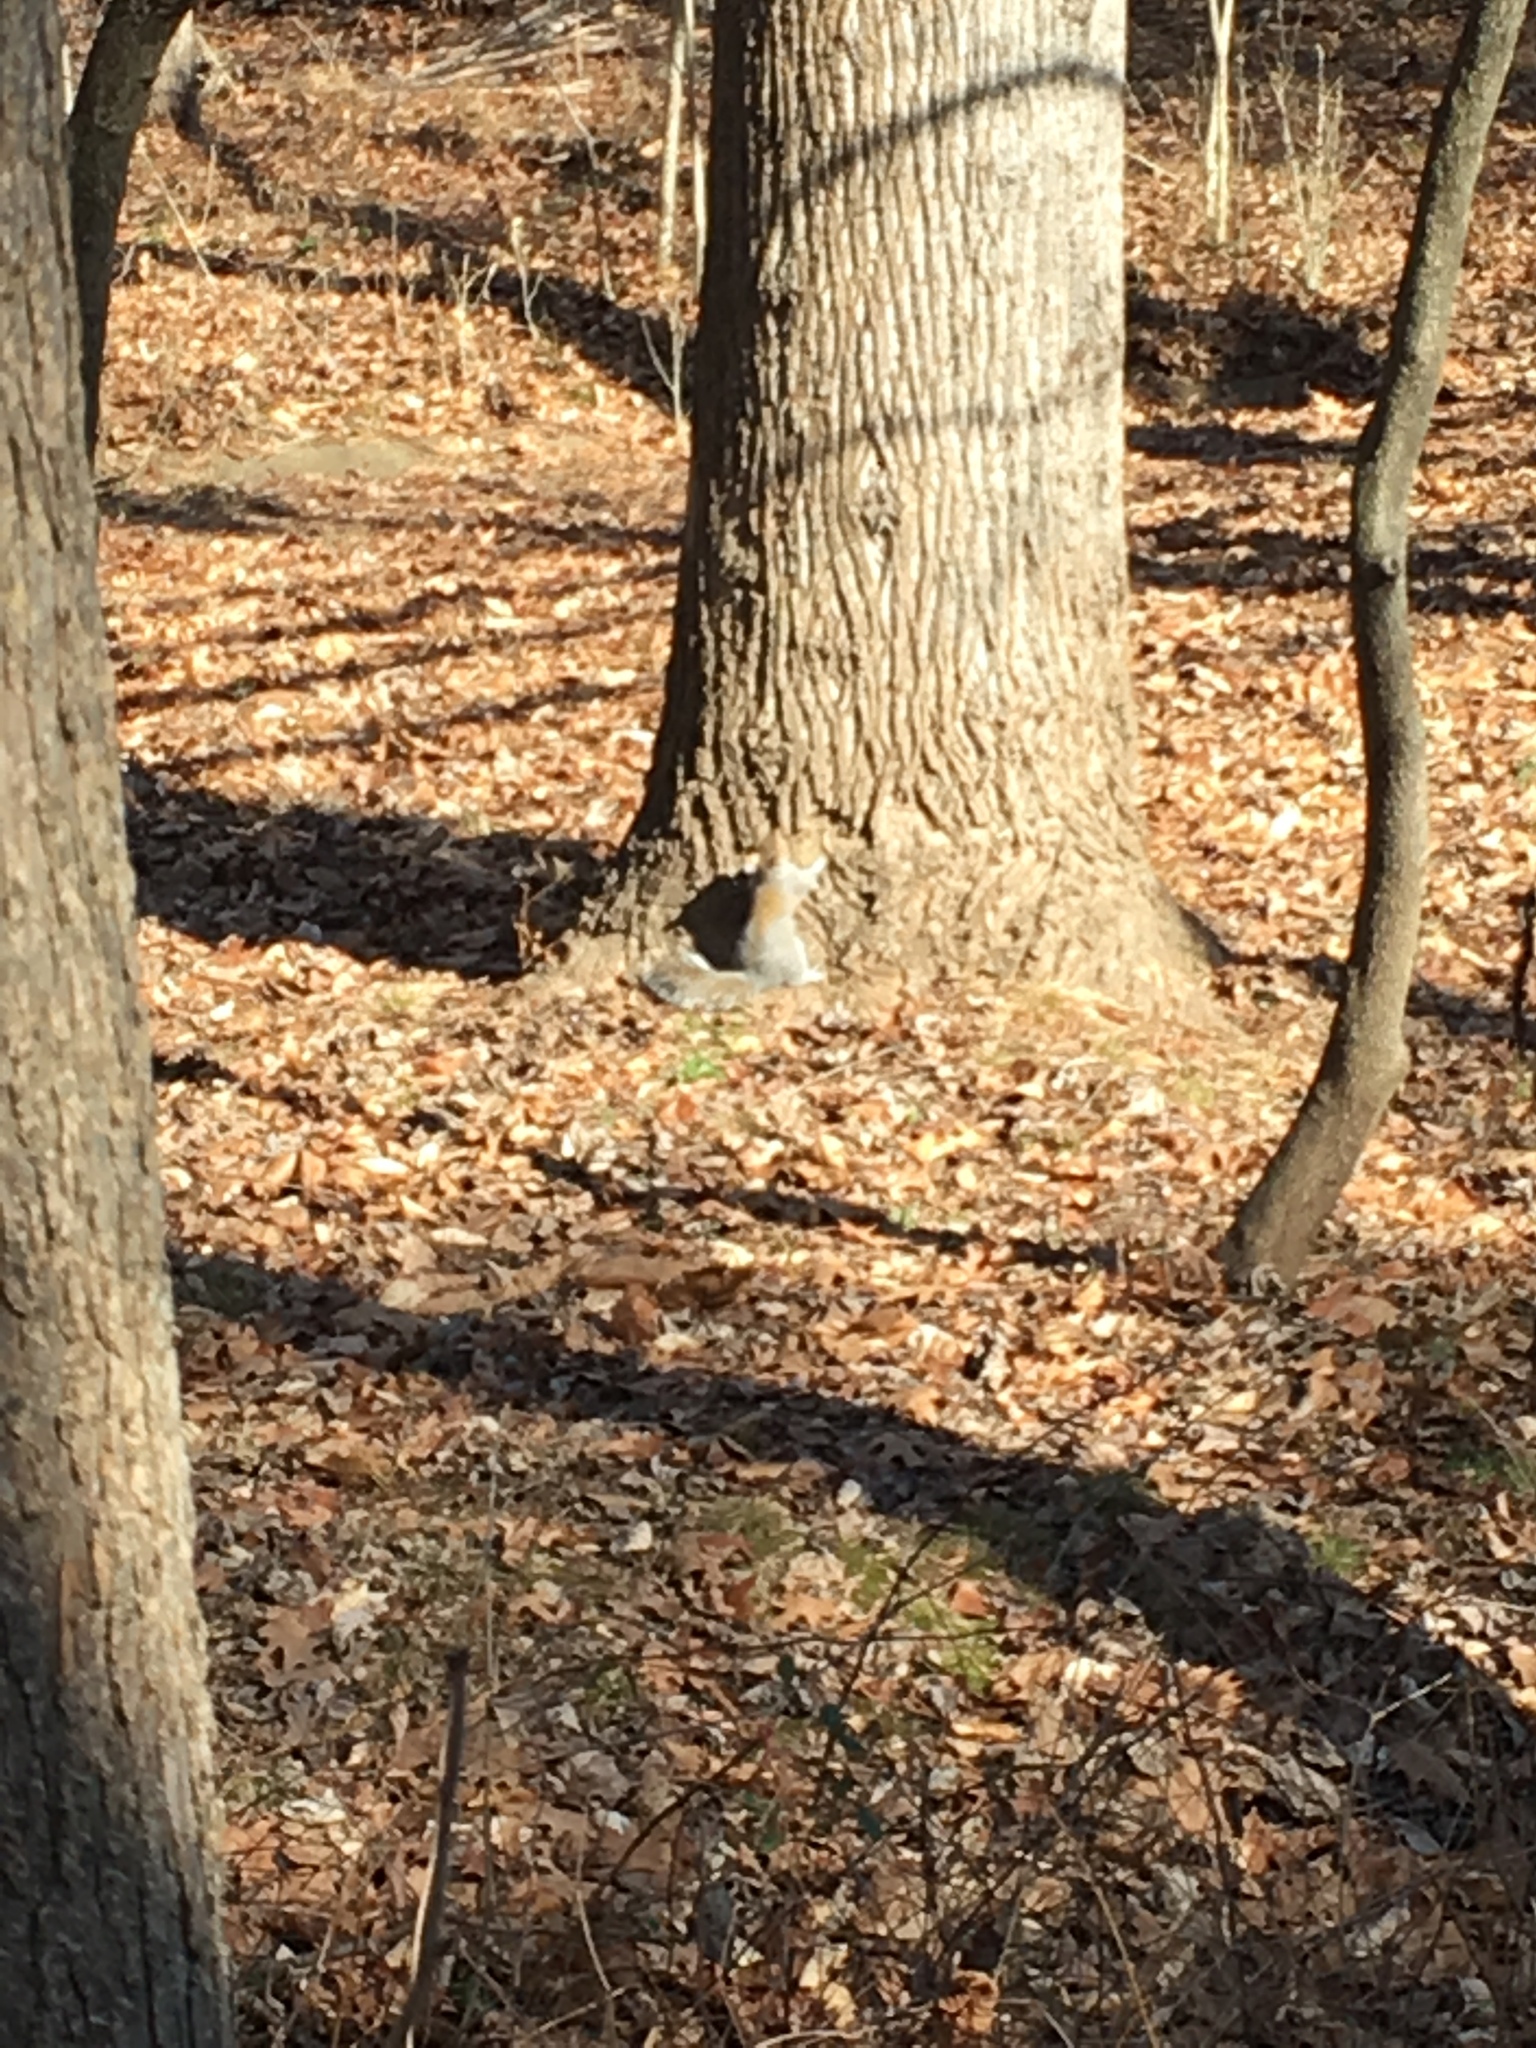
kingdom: Animalia
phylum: Chordata
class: Mammalia
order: Rodentia
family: Sciuridae
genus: Sciurus
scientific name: Sciurus carolinensis
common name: Eastern gray squirrel
